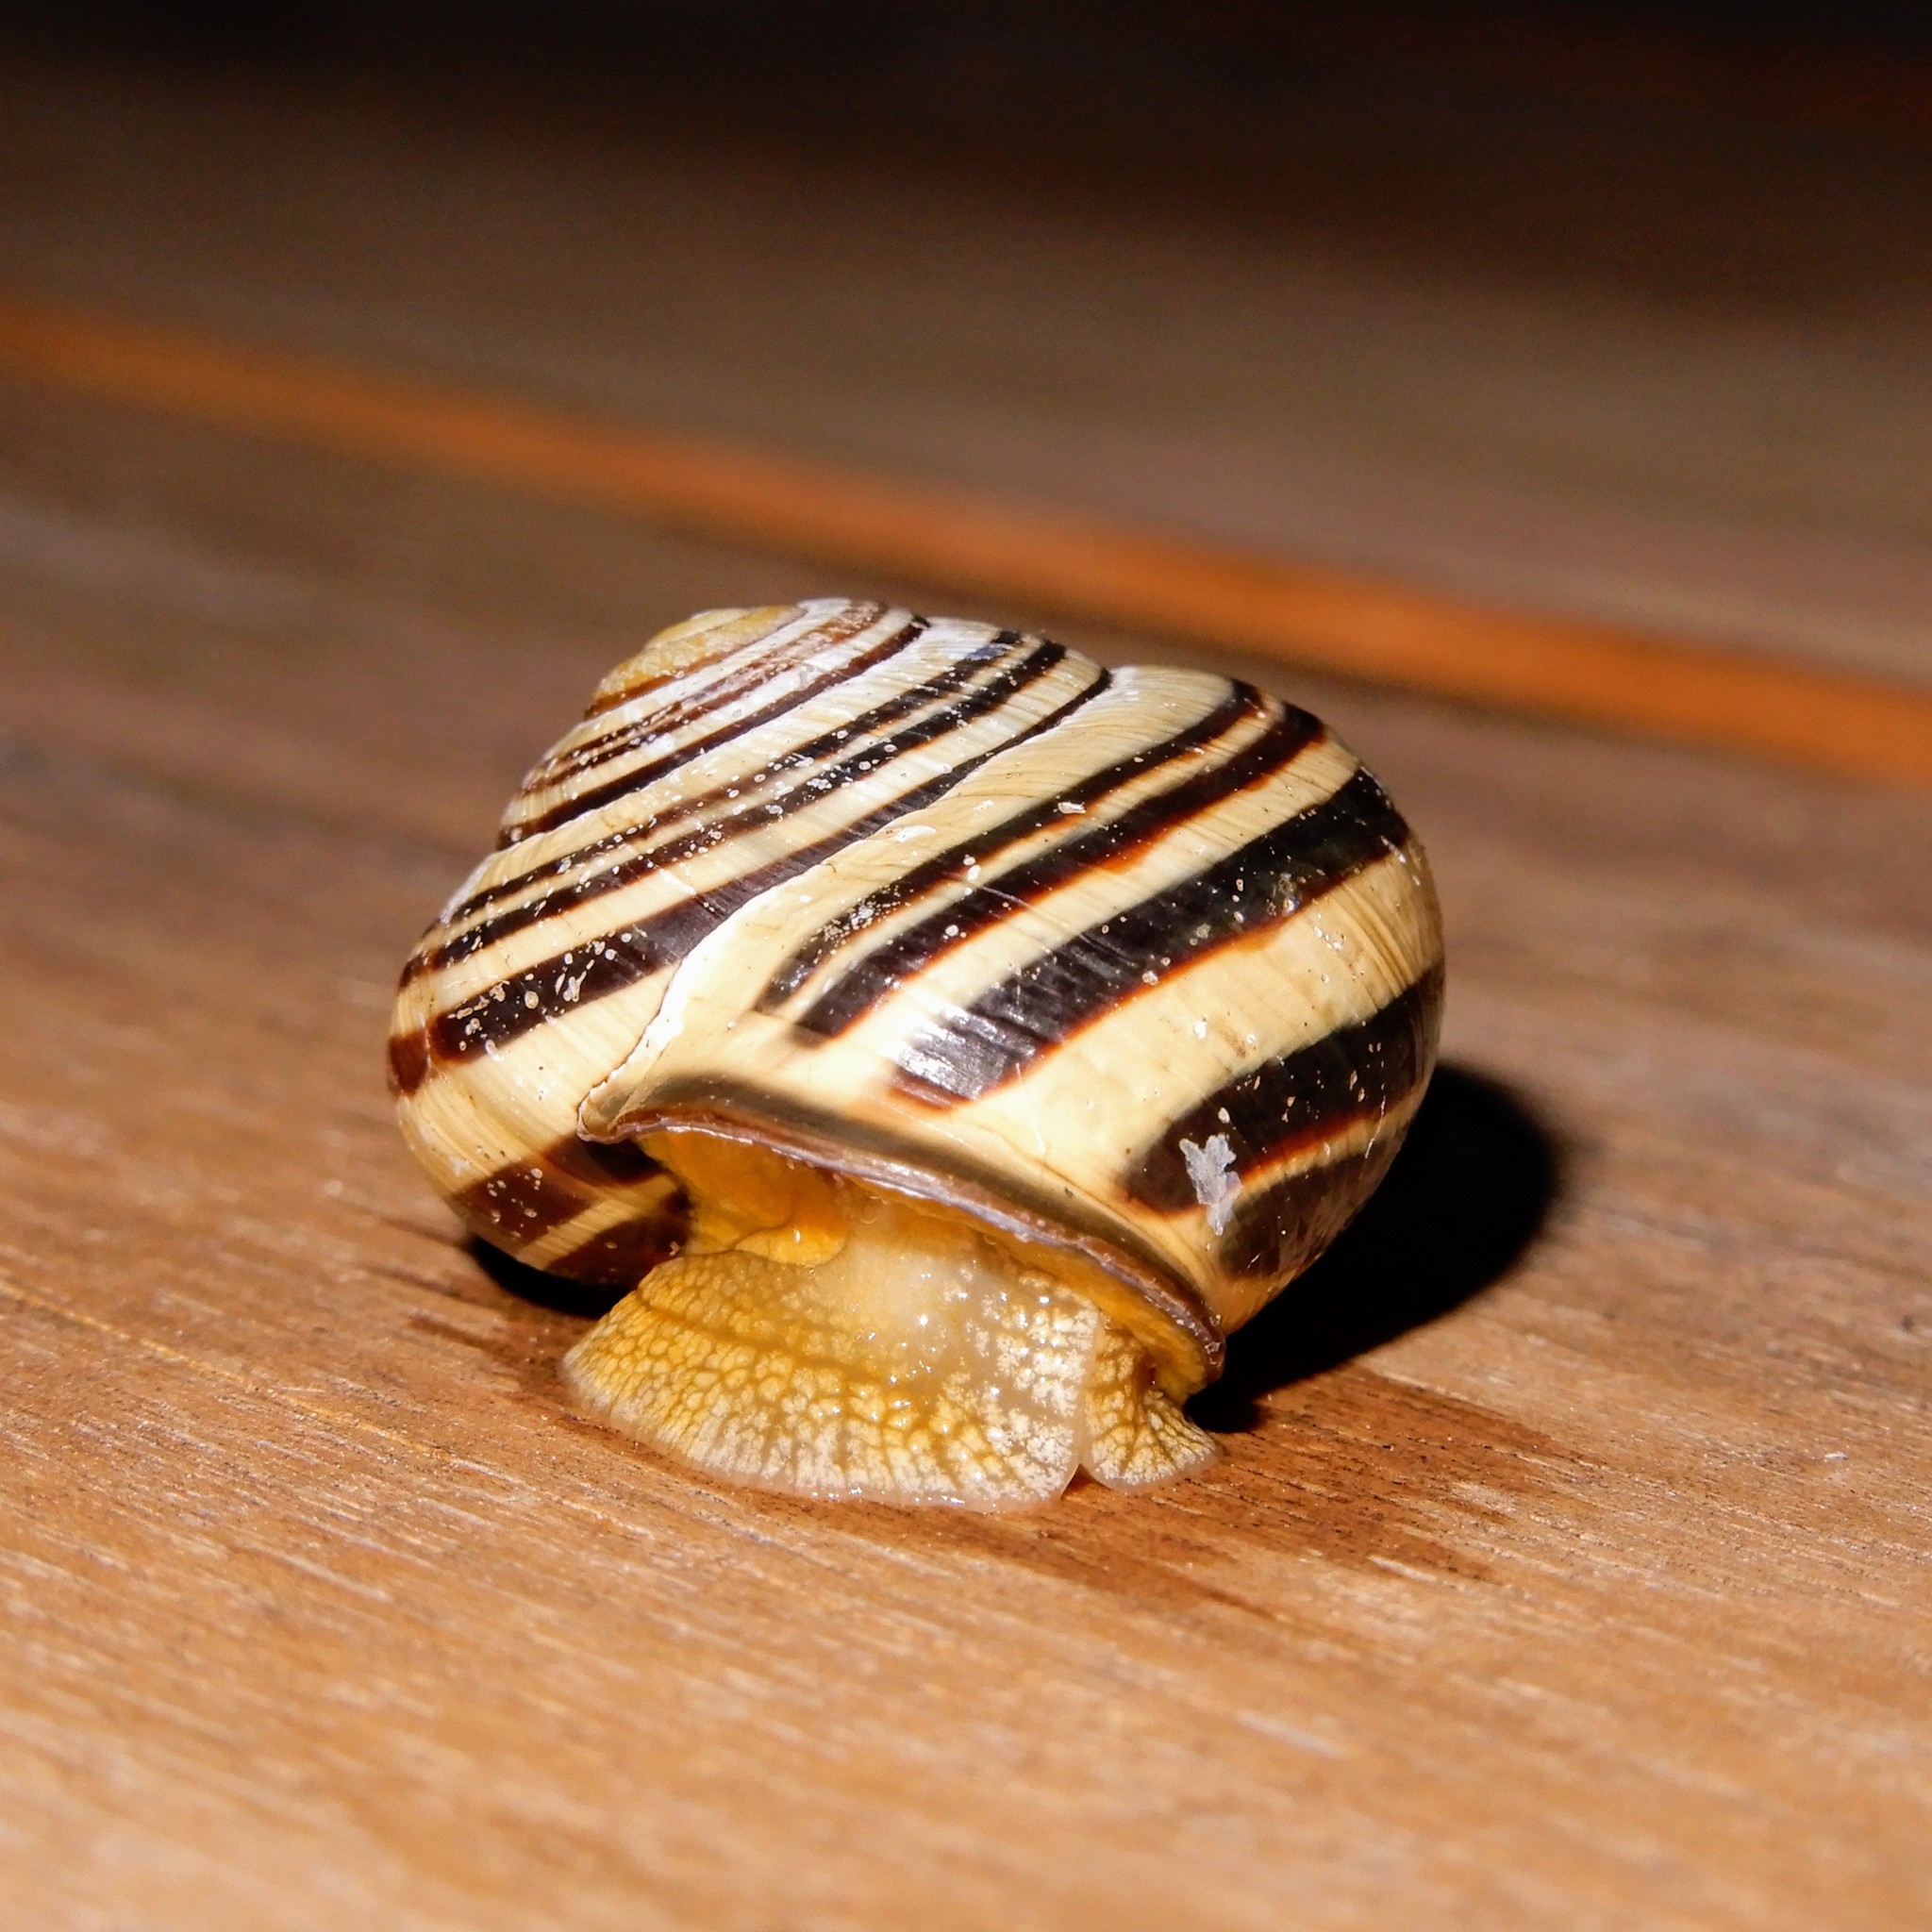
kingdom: Animalia
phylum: Mollusca
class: Gastropoda
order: Stylommatophora
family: Helicidae
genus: Cepaea
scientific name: Cepaea nemoralis
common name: Grovesnail
